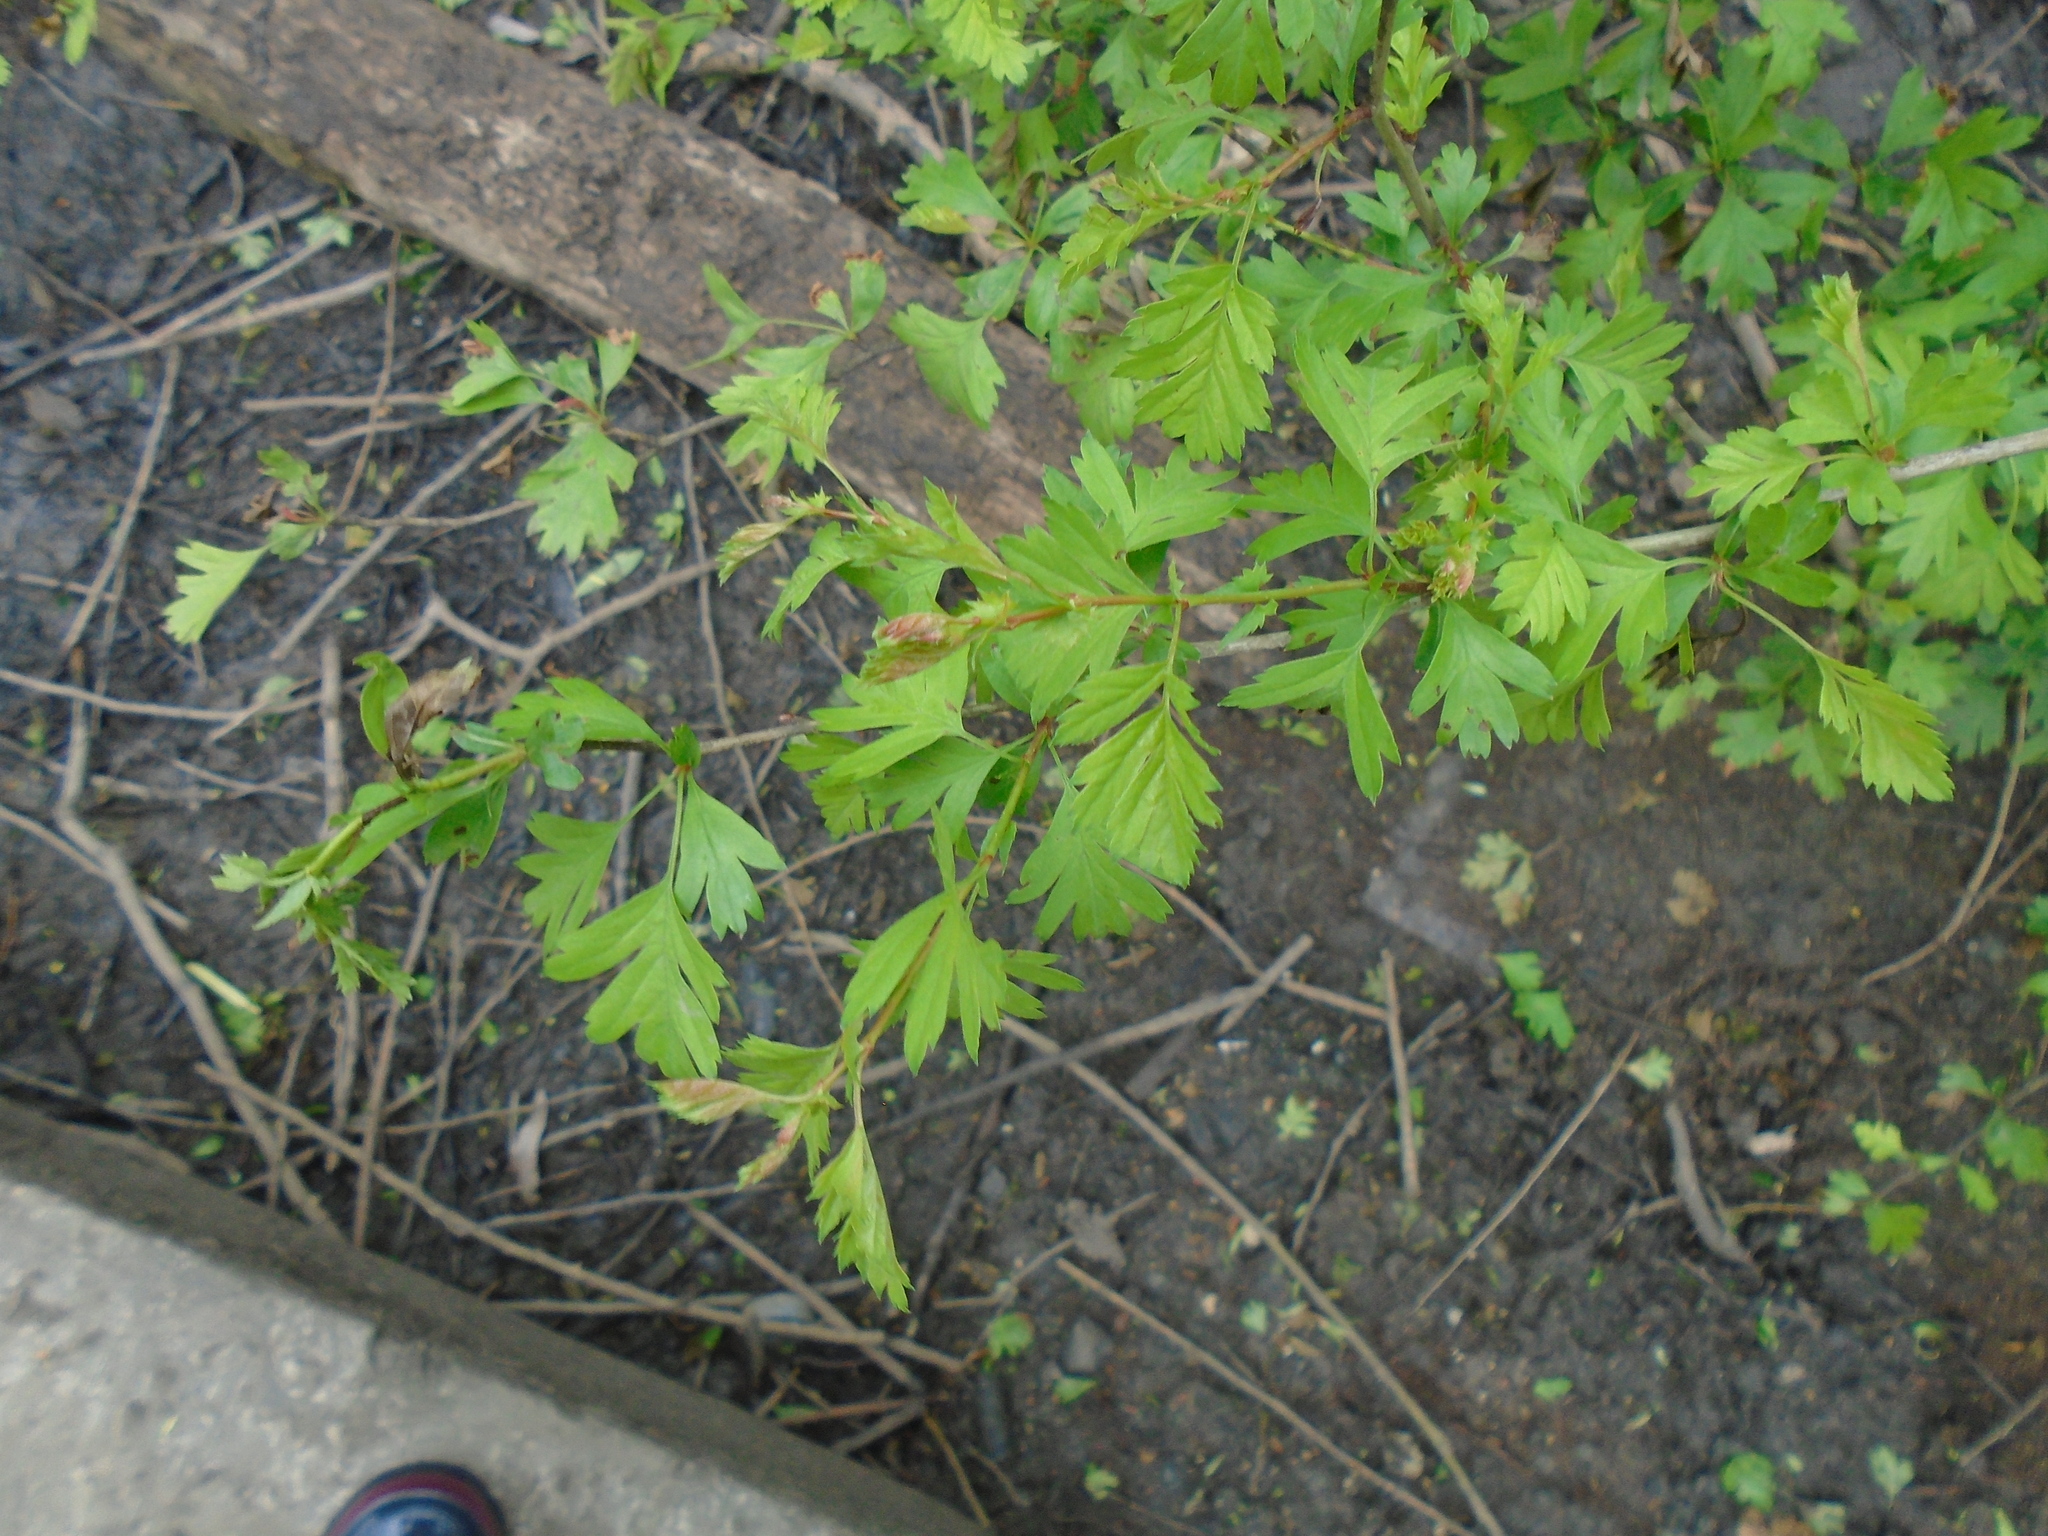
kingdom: Plantae
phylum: Tracheophyta
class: Magnoliopsida
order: Rosales
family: Rosaceae
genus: Crataegus
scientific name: Crataegus monogyna
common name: Hawthorn
